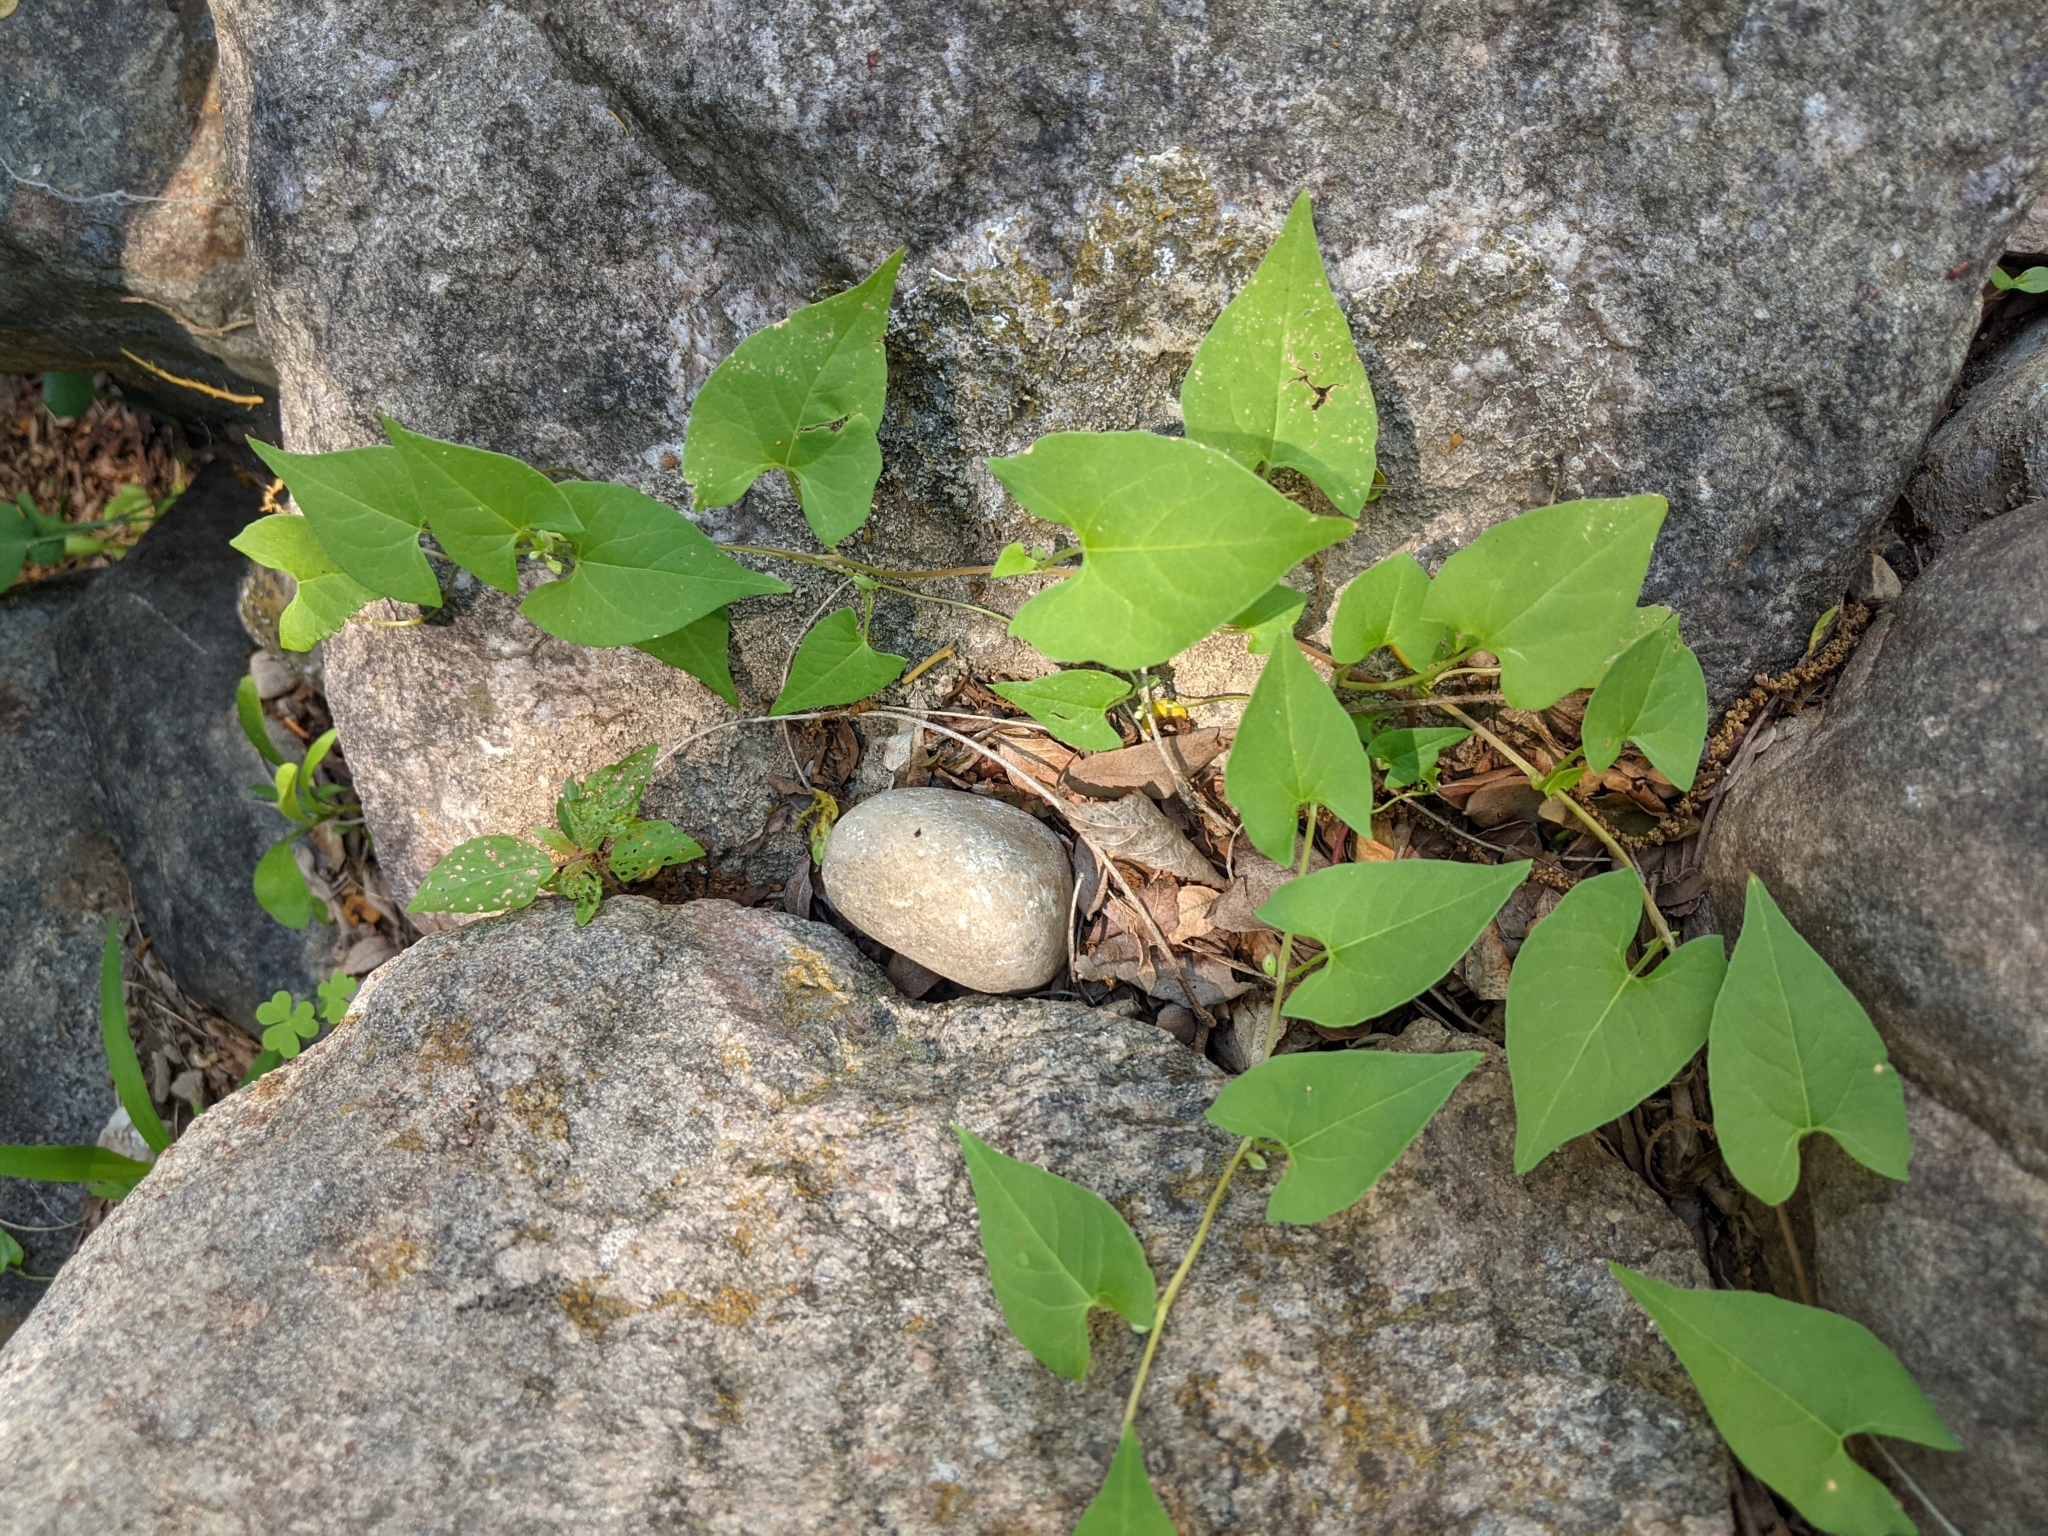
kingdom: Plantae
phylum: Tracheophyta
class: Magnoliopsida
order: Caryophyllales
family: Polygonaceae
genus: Fallopia
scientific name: Fallopia convolvulus
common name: Black bindweed
